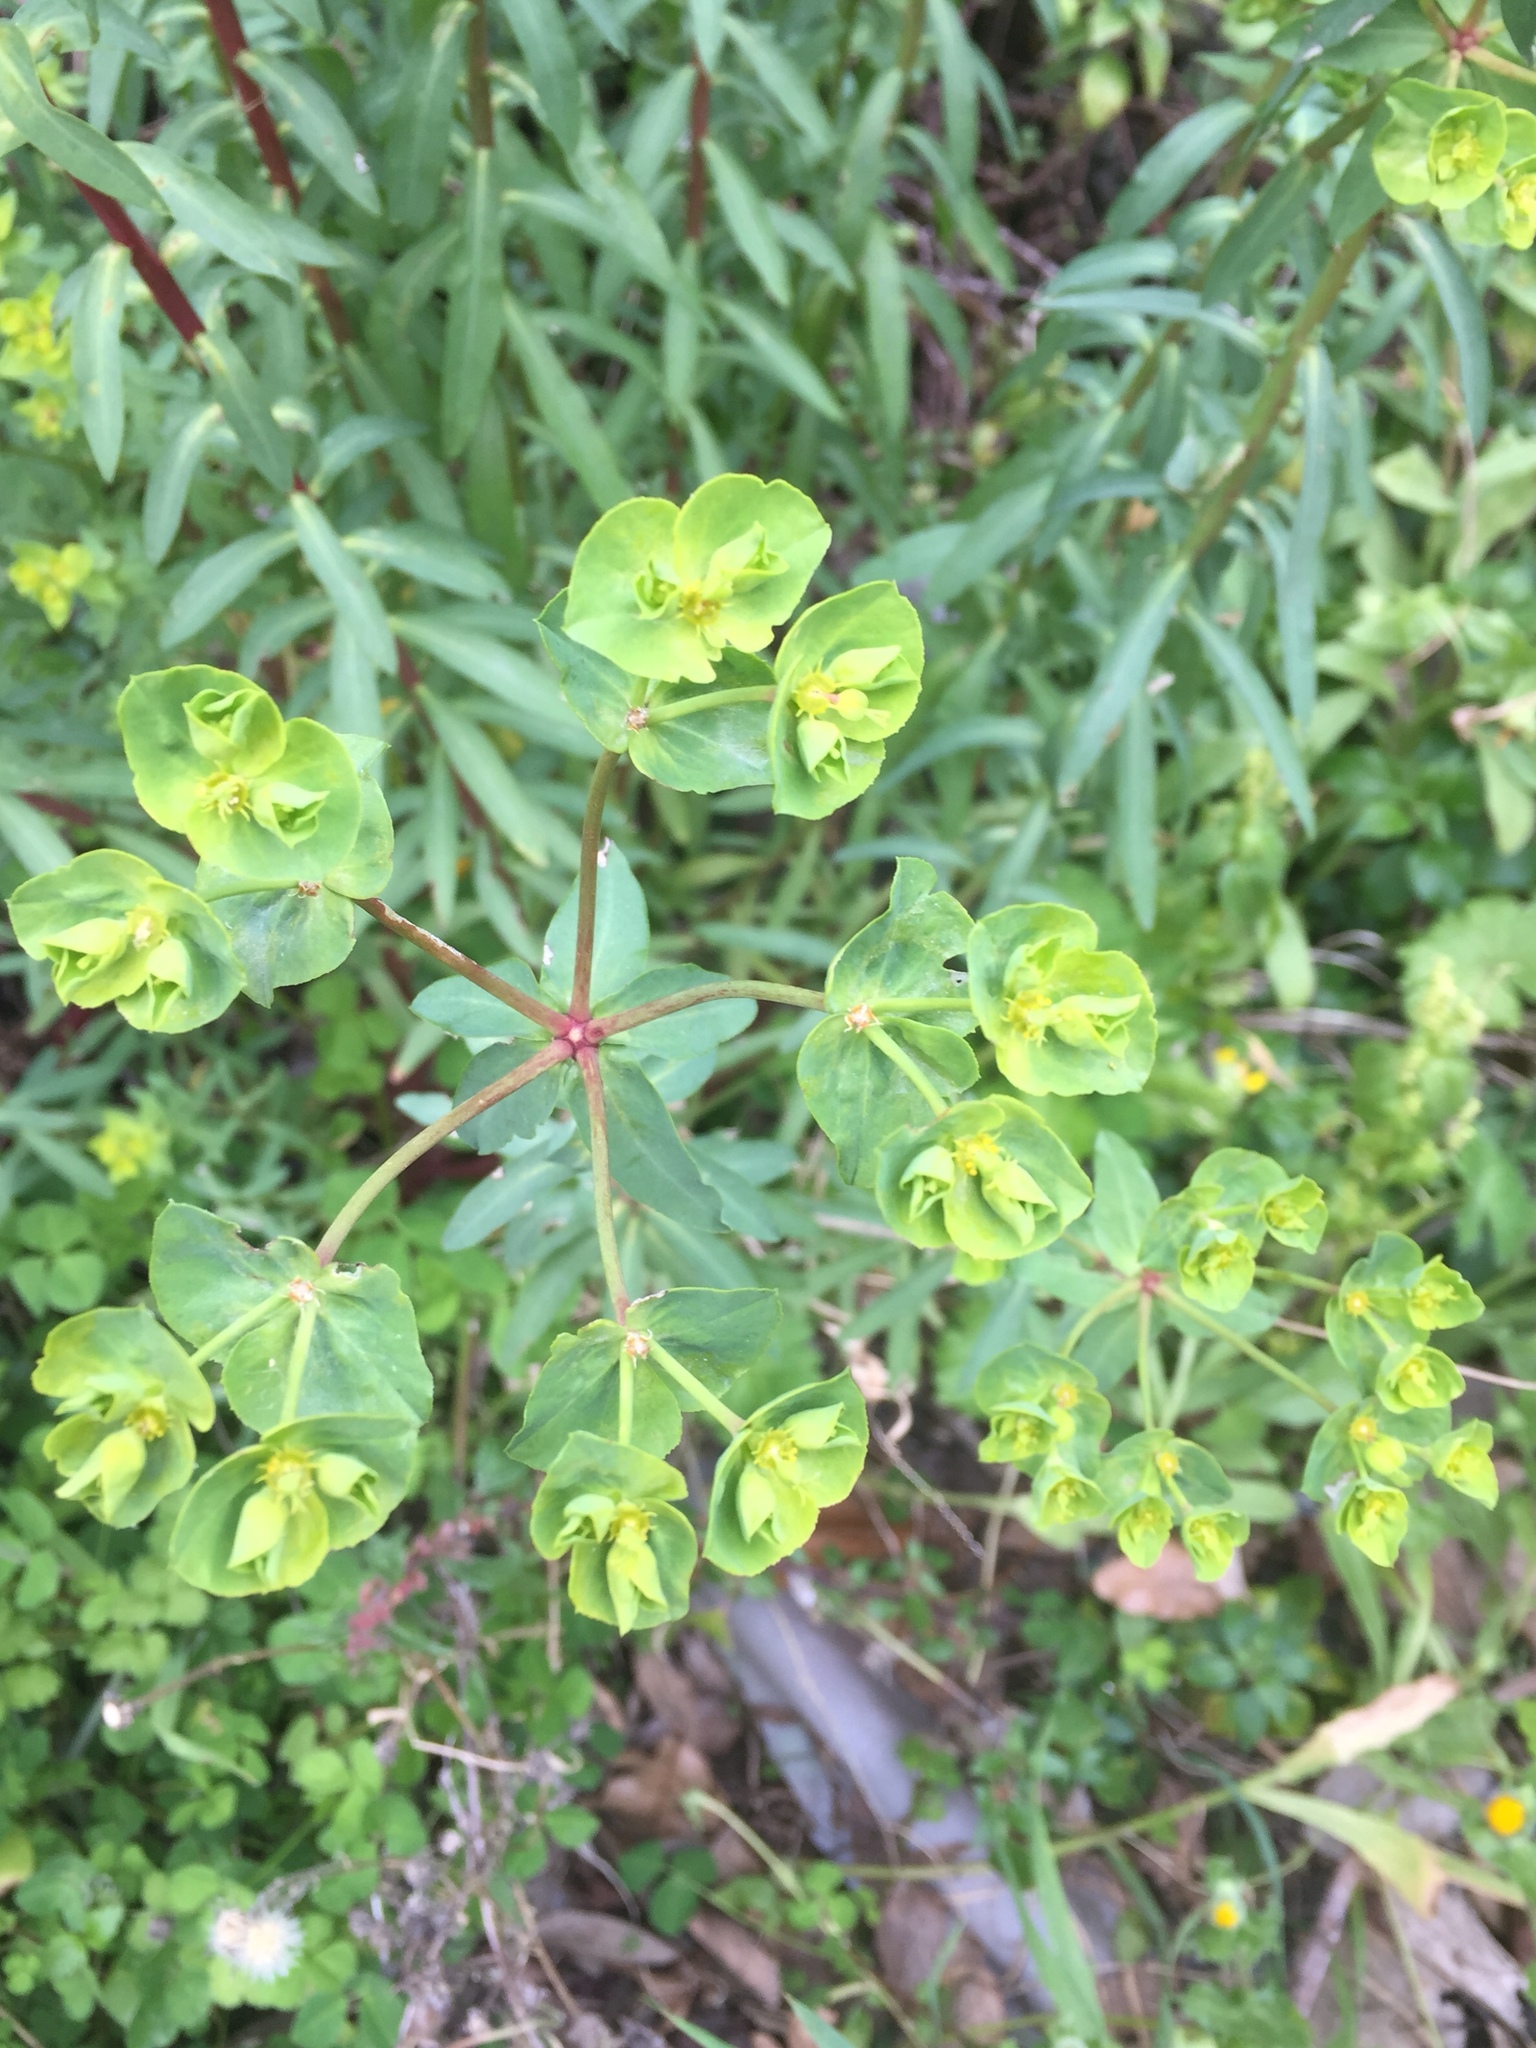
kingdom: Plantae
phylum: Tracheophyta
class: Magnoliopsida
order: Malpighiales
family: Euphorbiaceae
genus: Euphorbia
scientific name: Euphorbia terracina
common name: Geraldton carnation weed
